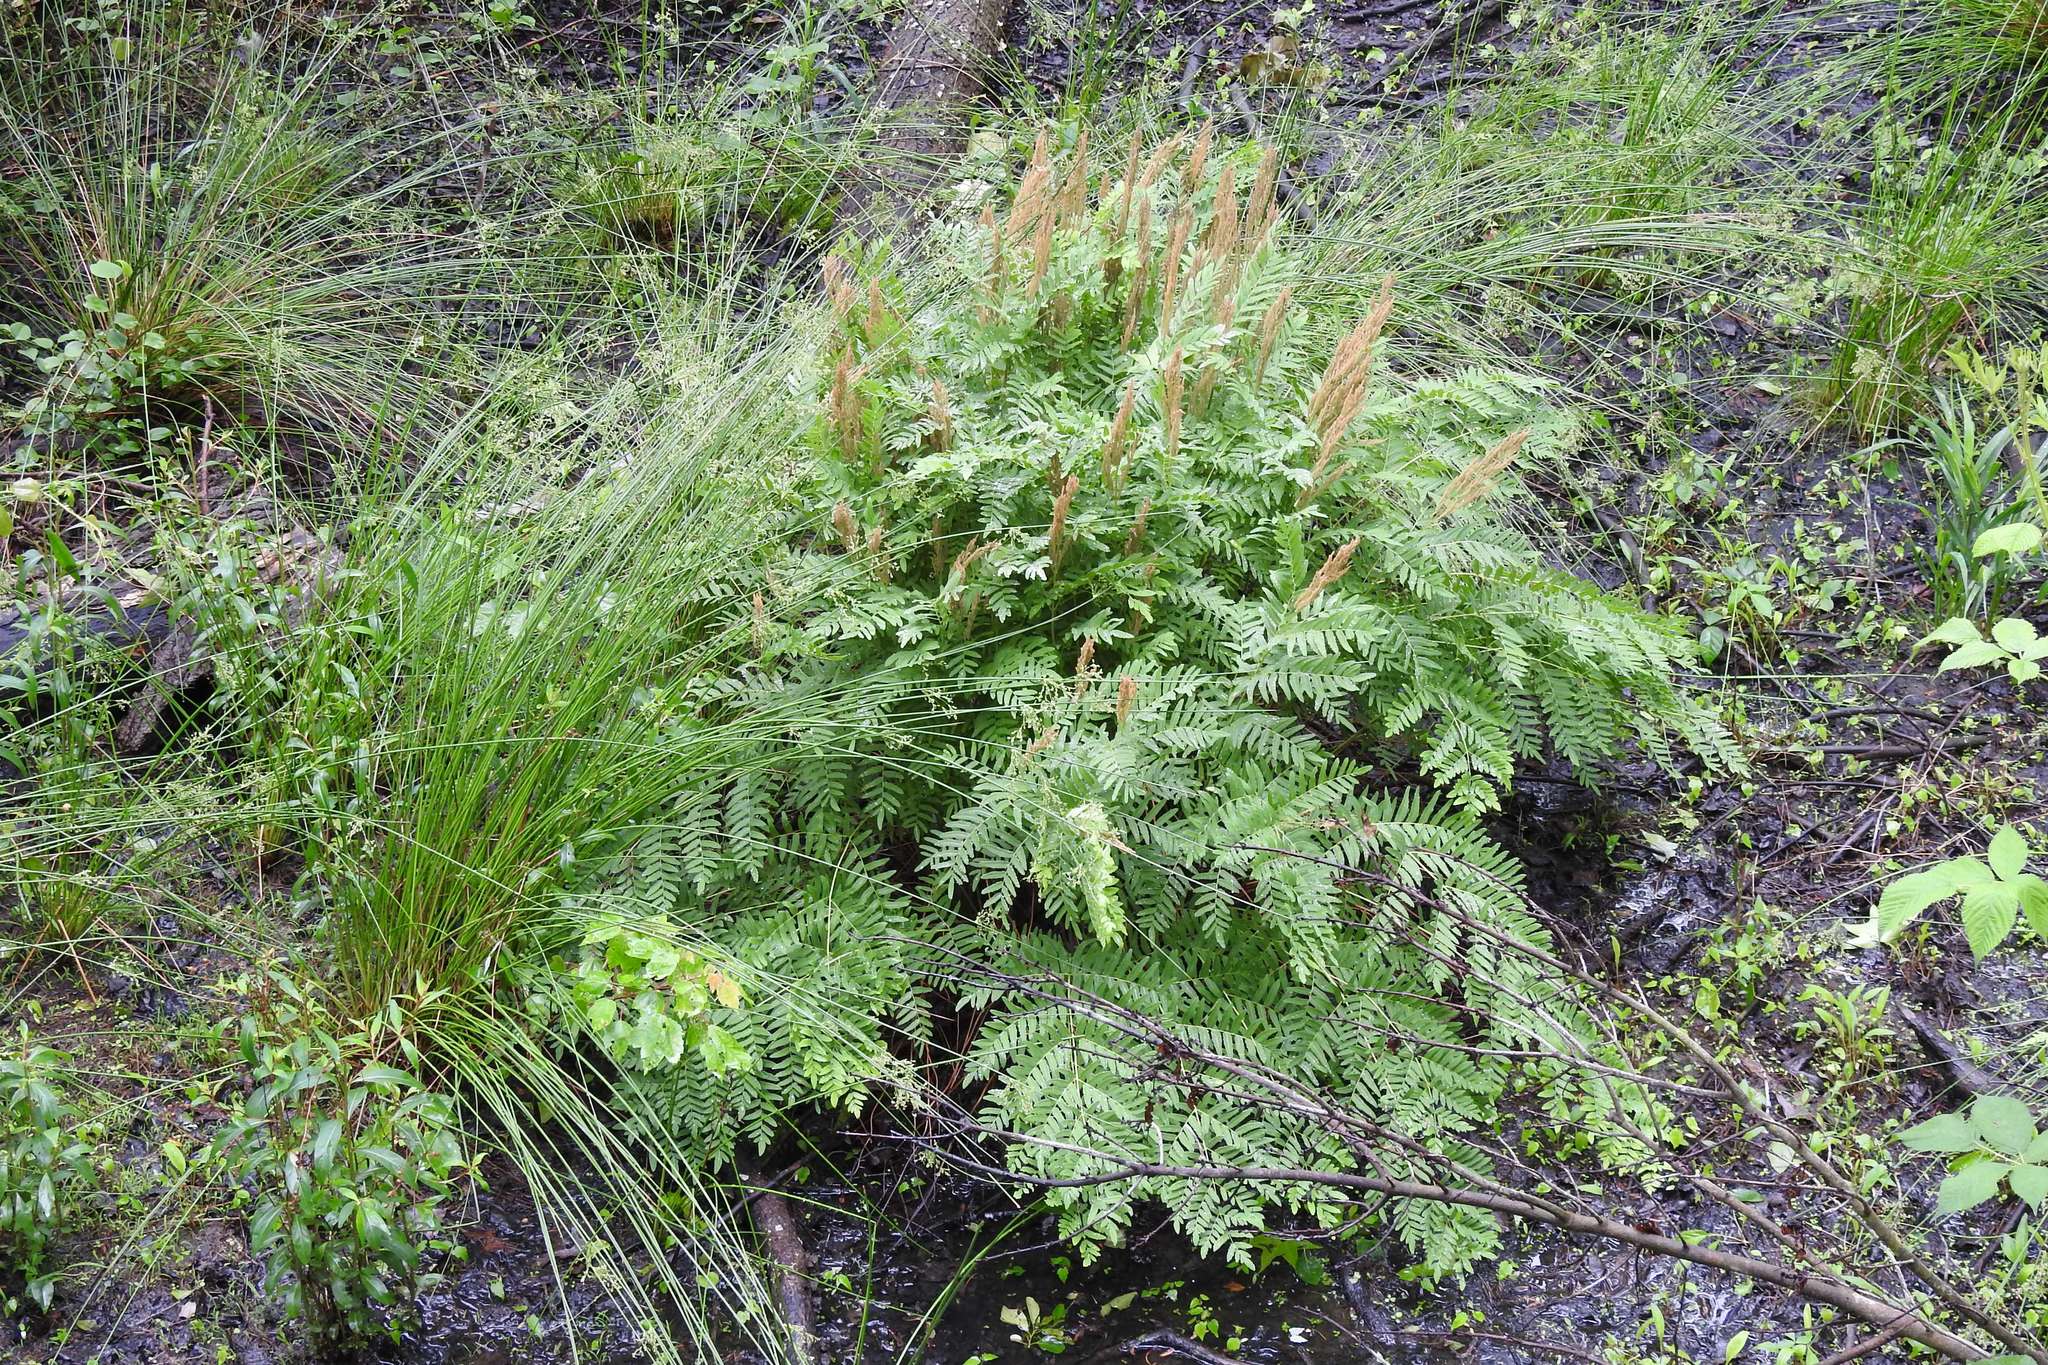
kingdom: Plantae
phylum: Tracheophyta
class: Polypodiopsida
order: Osmundales
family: Osmundaceae
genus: Osmunda
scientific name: Osmunda spectabilis
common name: American royal fern
